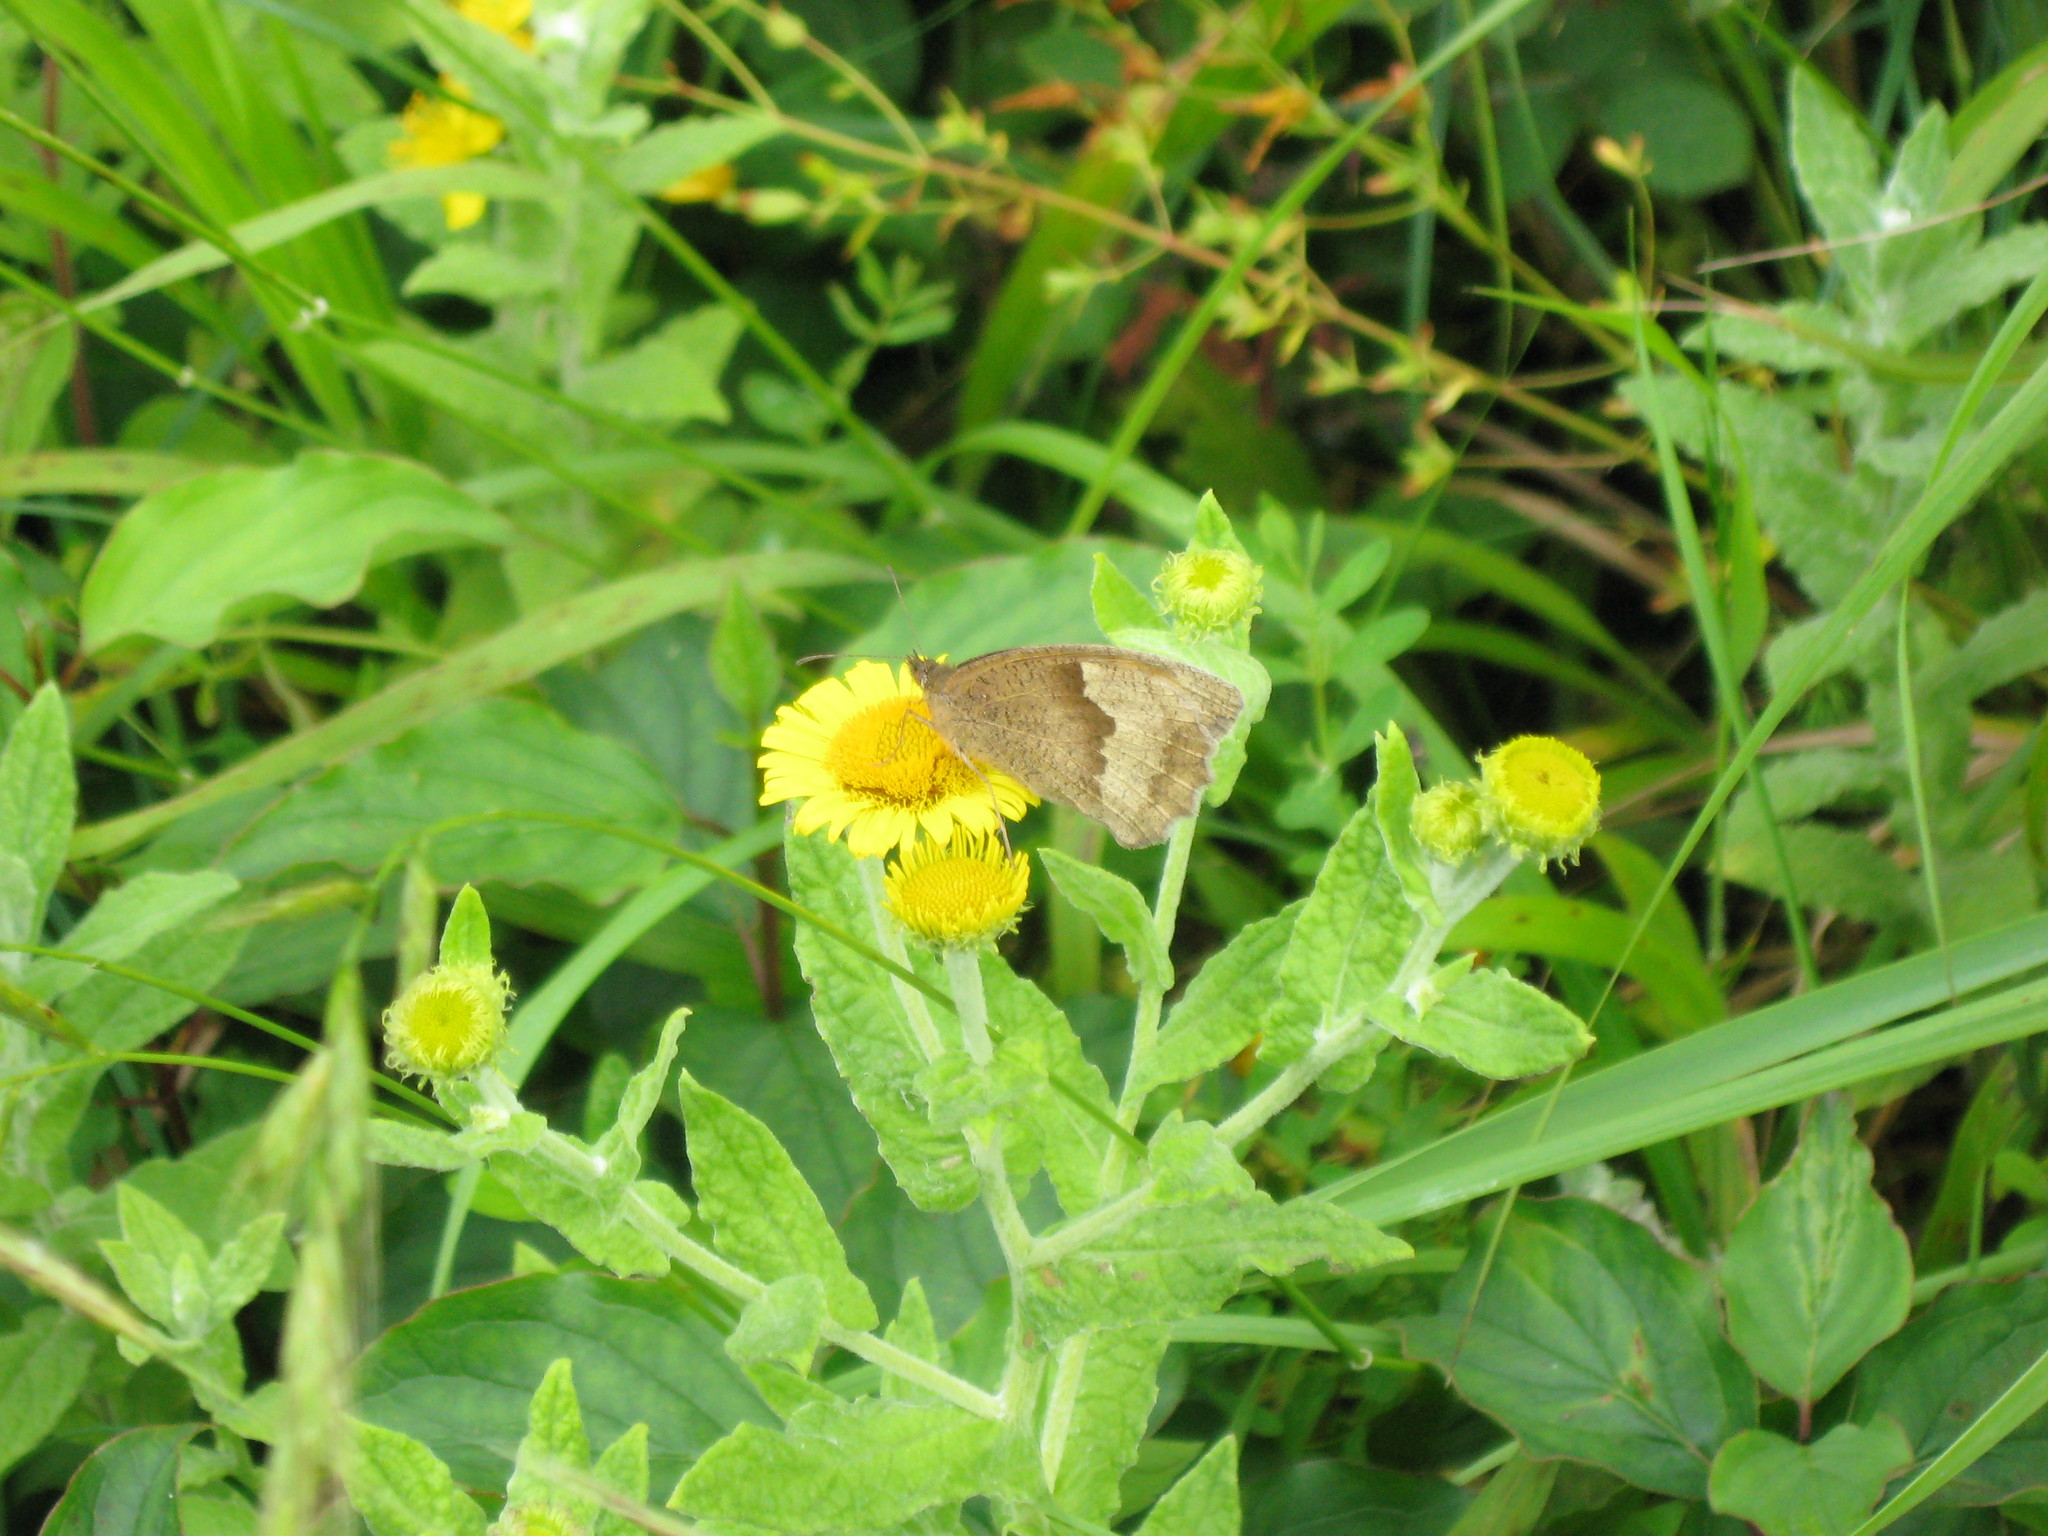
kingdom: Animalia
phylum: Arthropoda
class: Insecta
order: Lepidoptera
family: Nymphalidae
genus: Maniola
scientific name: Maniola jurtina
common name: Meadow brown
